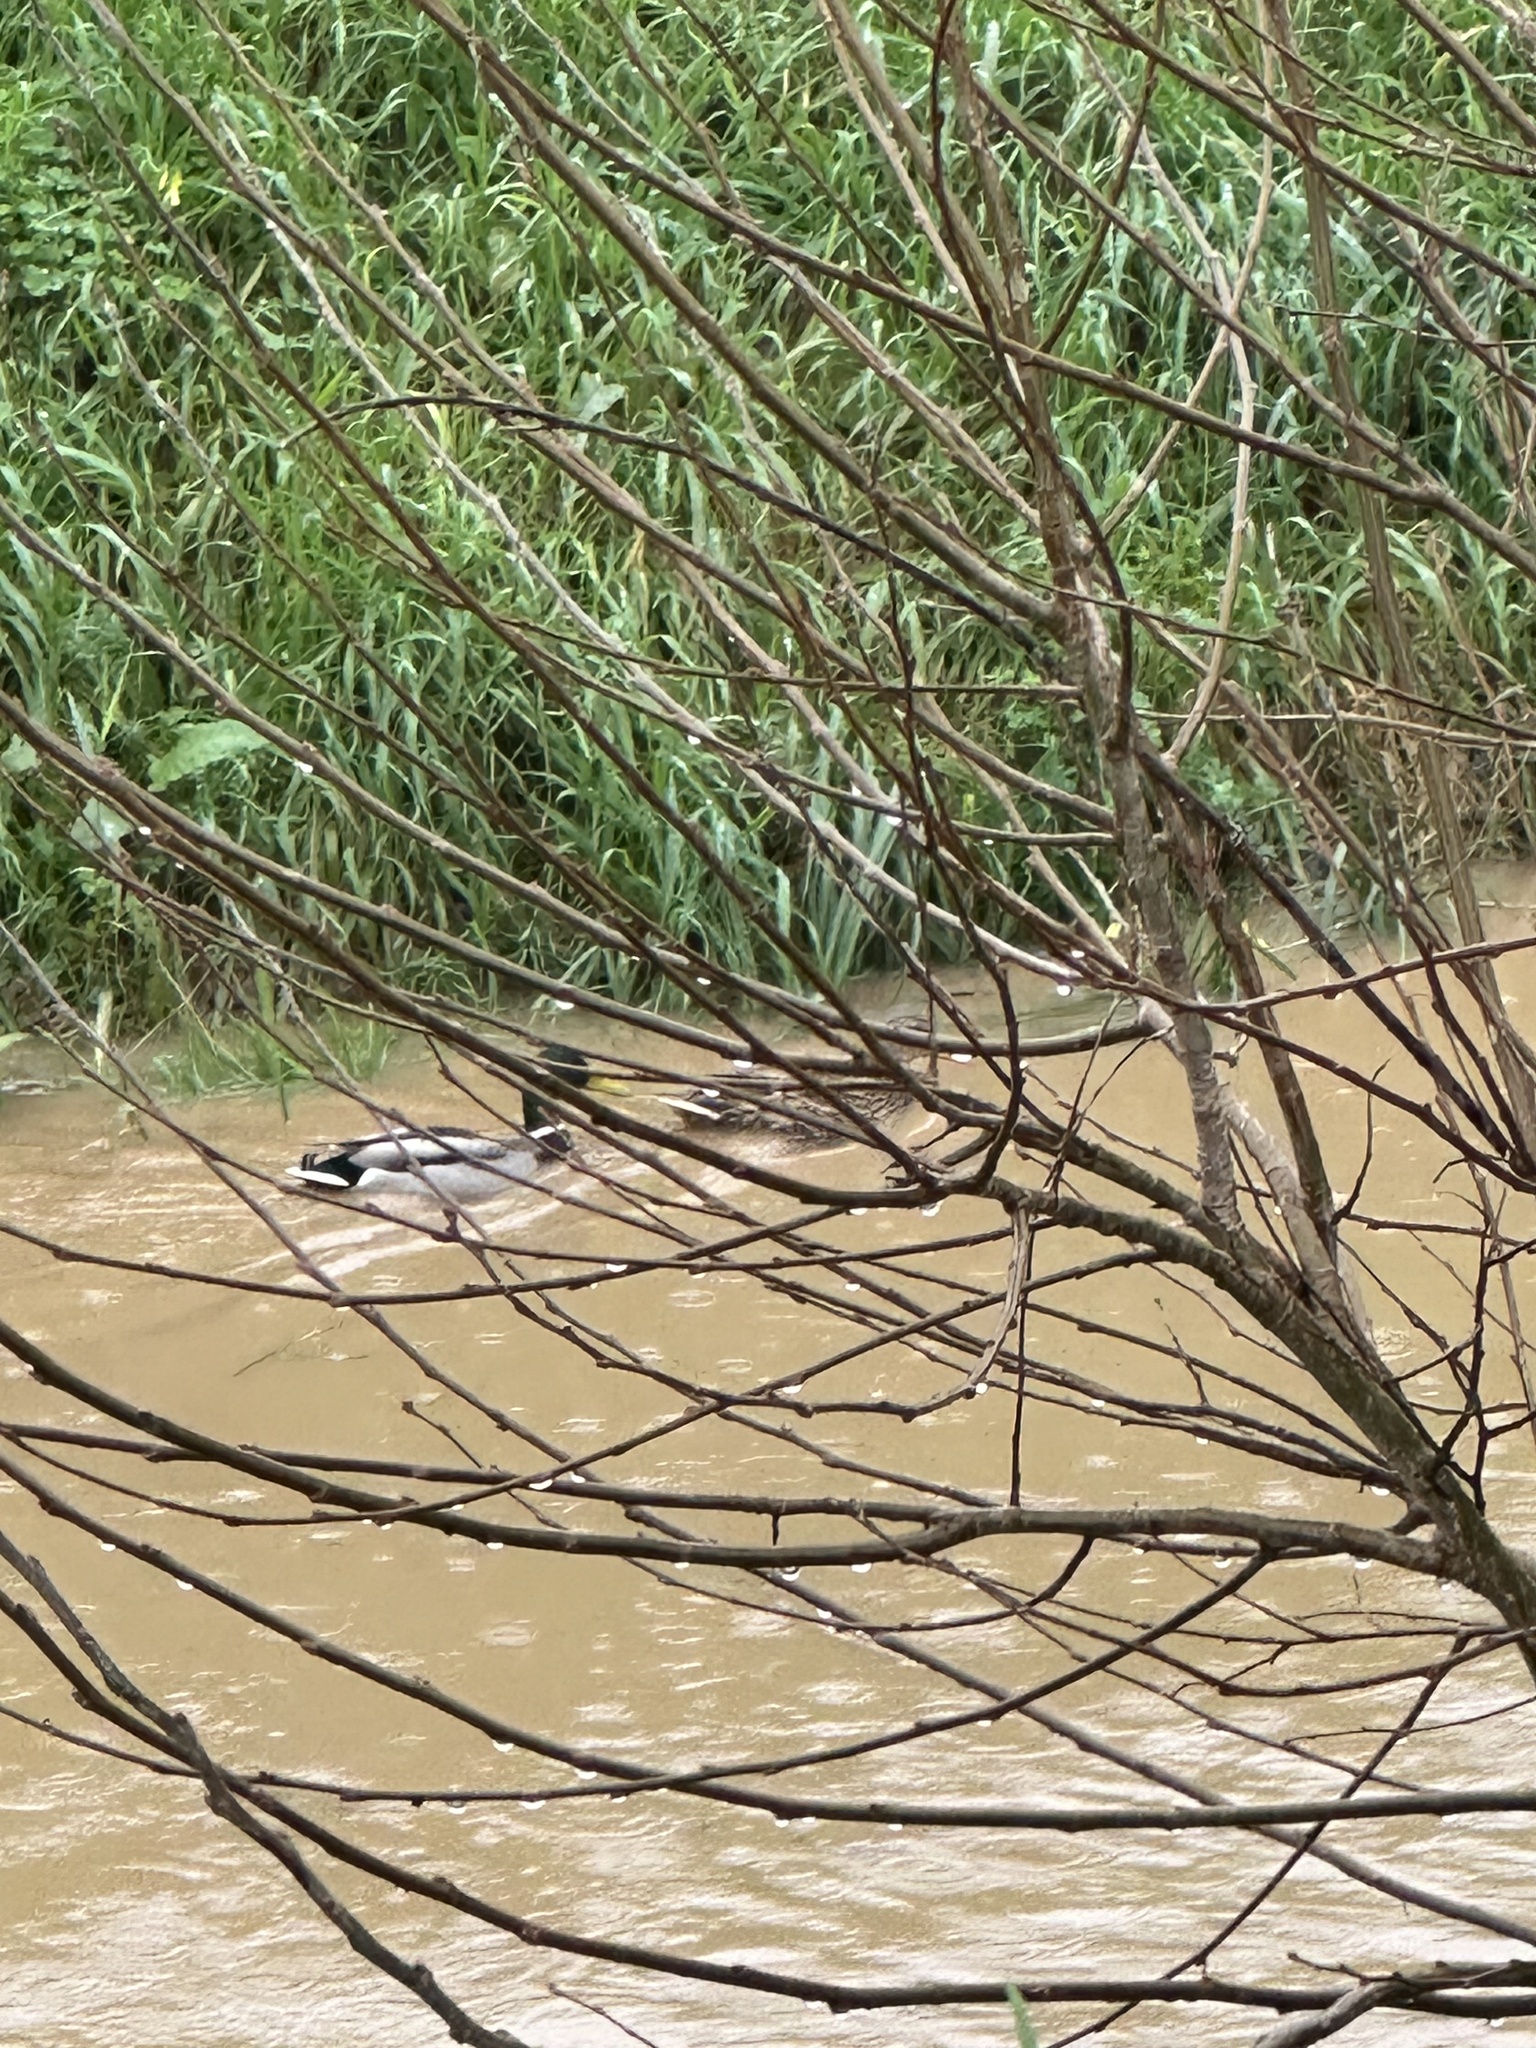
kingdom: Animalia
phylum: Chordata
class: Aves
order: Anseriformes
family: Anatidae
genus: Anas
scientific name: Anas platyrhynchos
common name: Mallard
